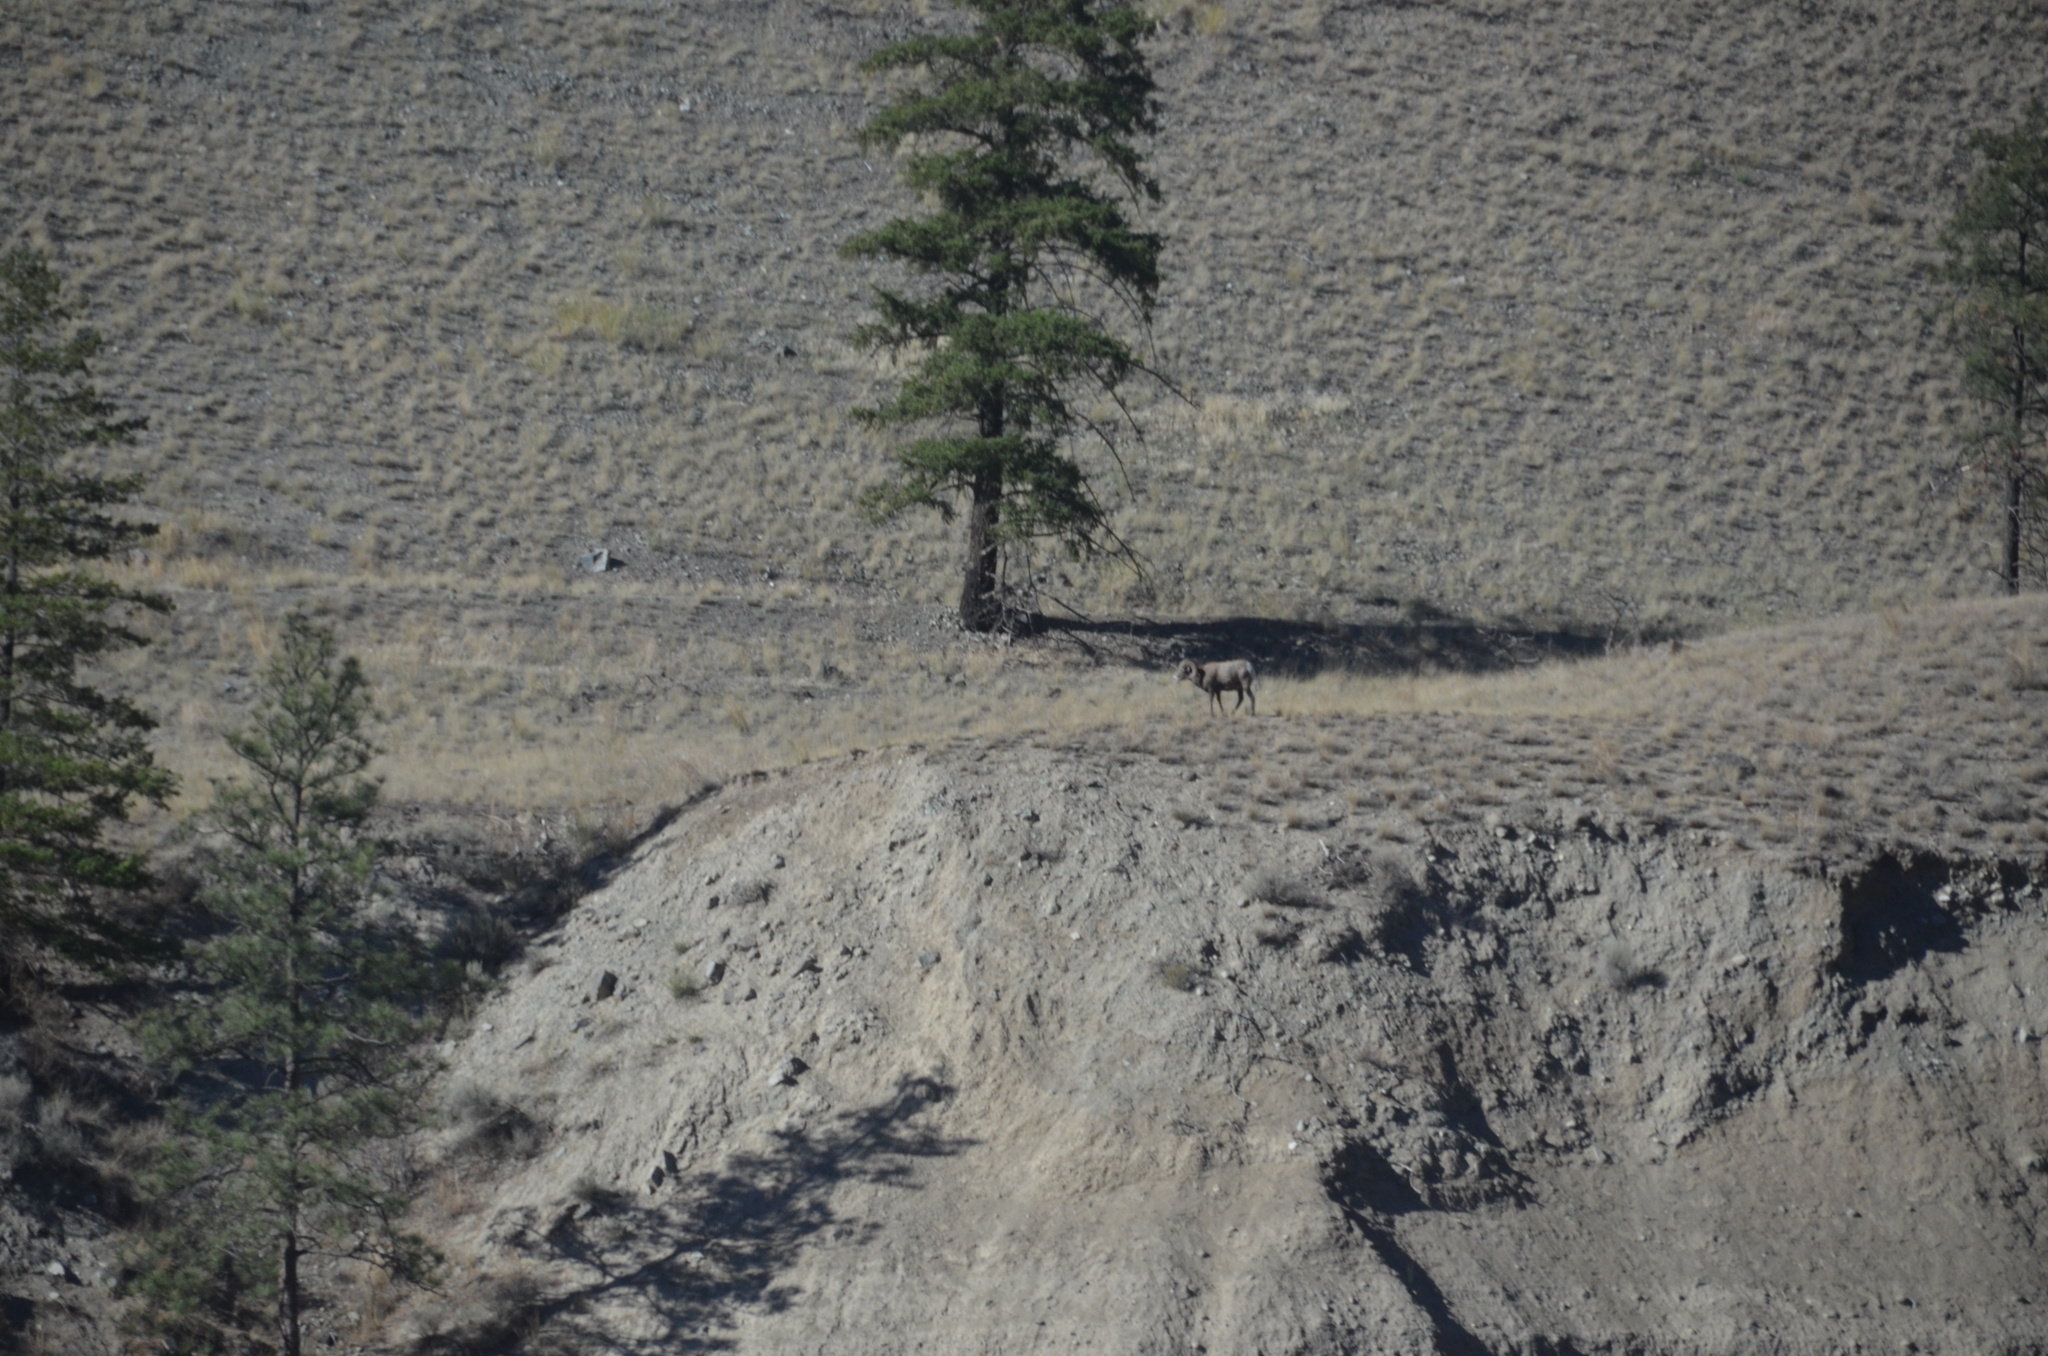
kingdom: Animalia
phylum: Chordata
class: Mammalia
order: Artiodactyla
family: Bovidae
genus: Ovis
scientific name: Ovis canadensis
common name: Bighorn sheep
